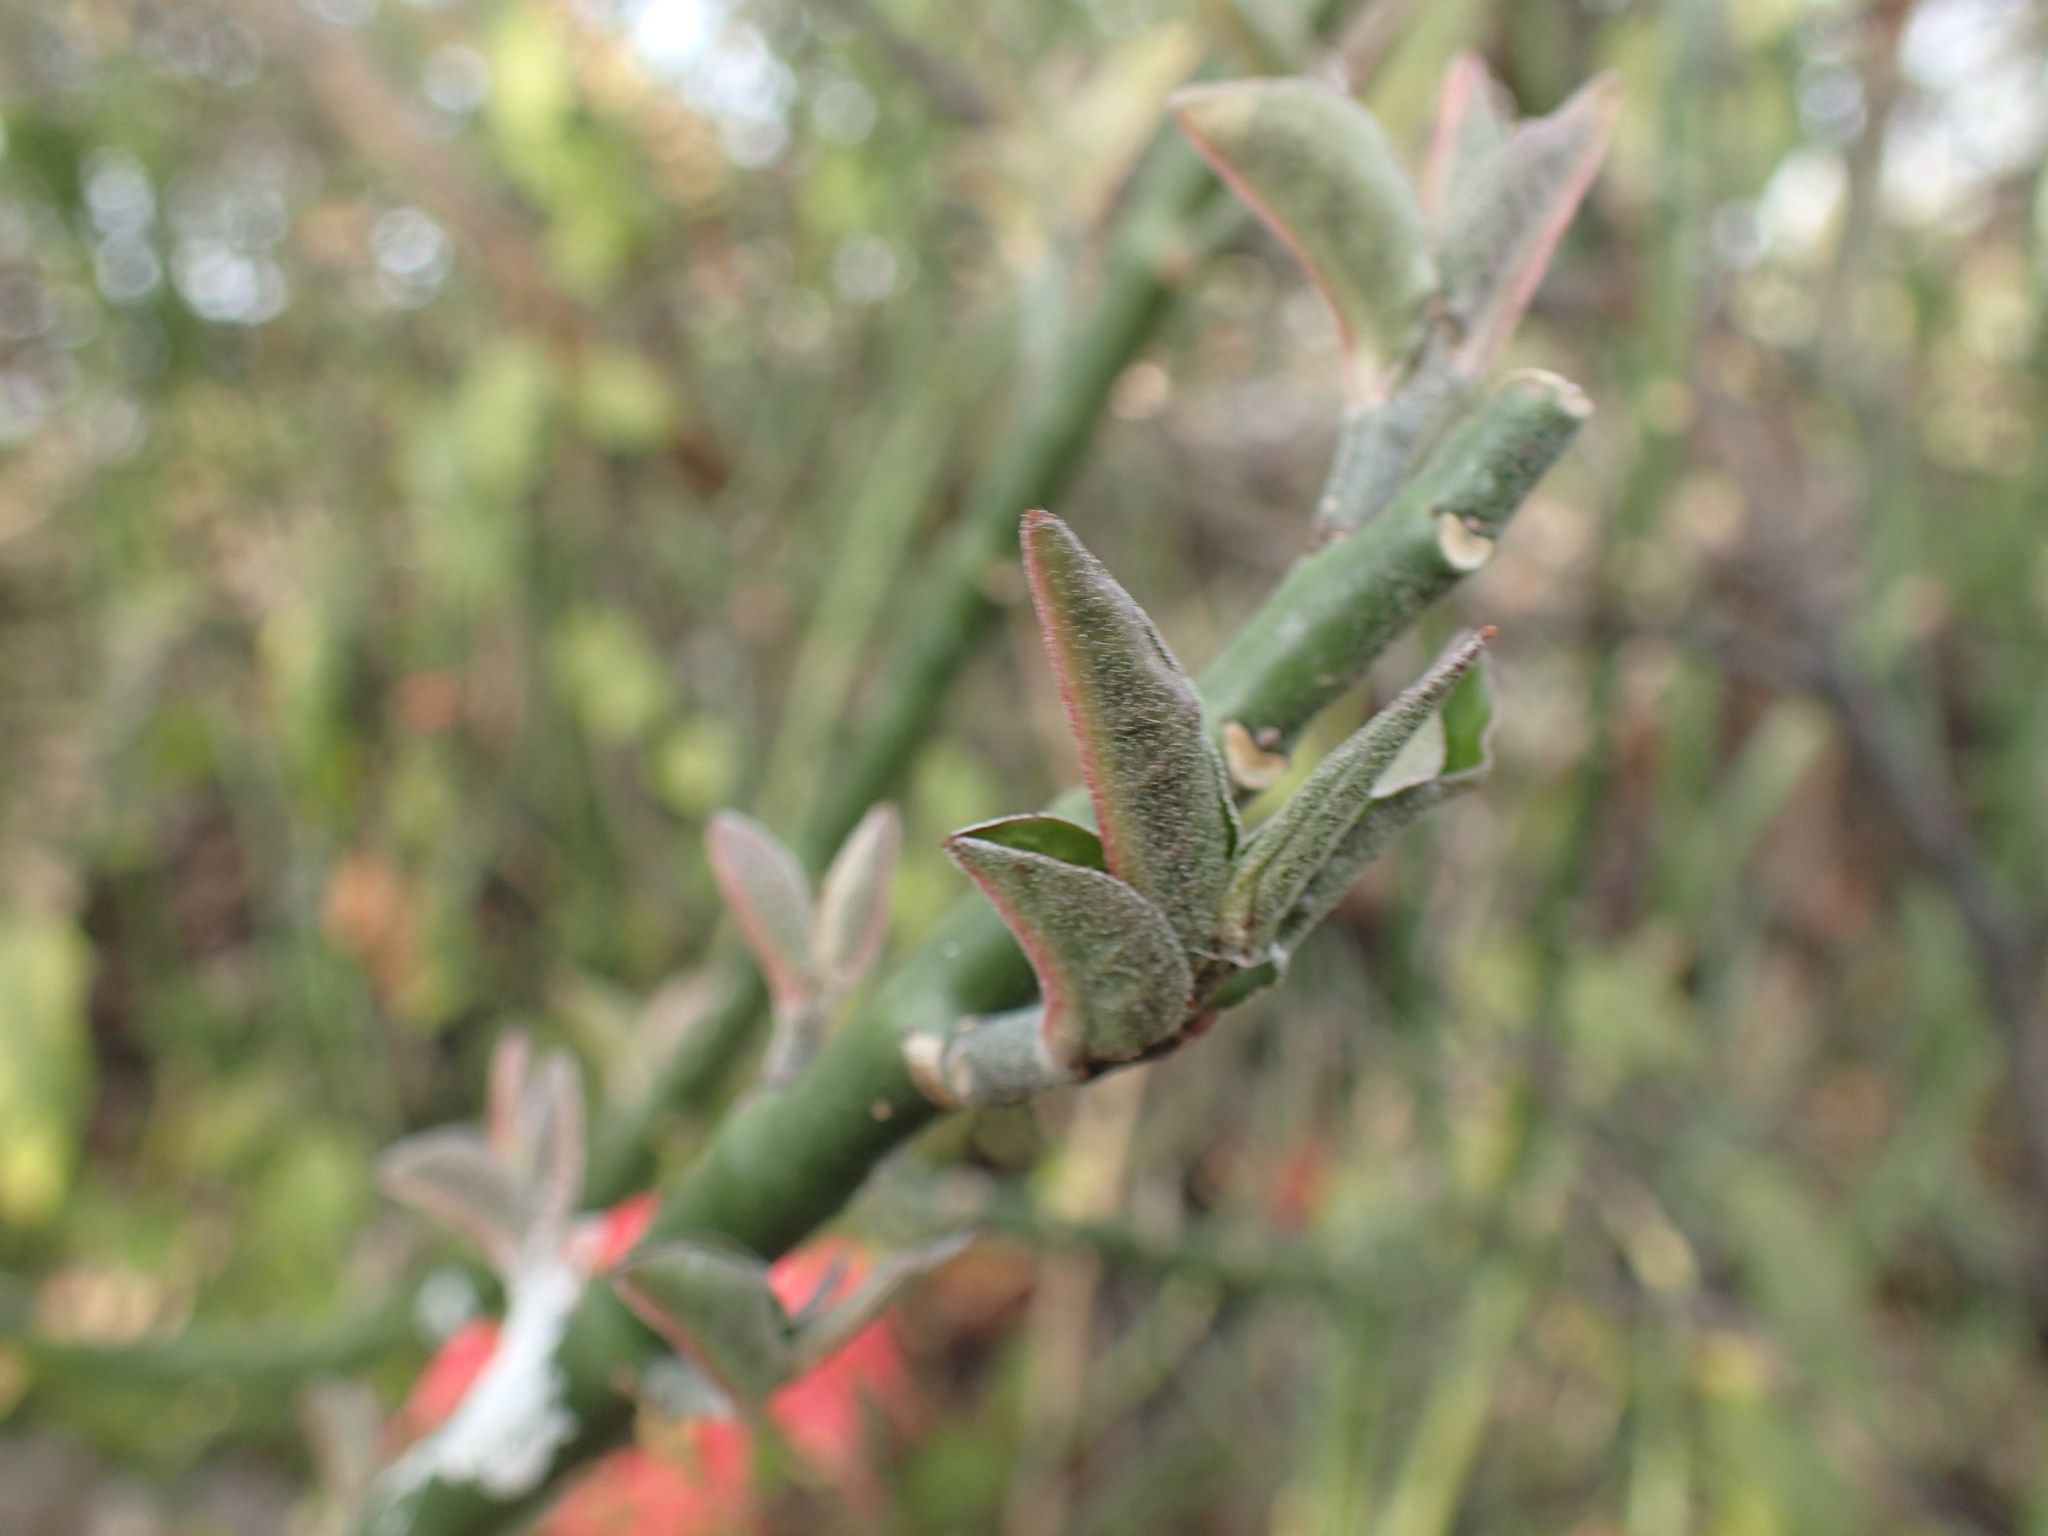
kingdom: Plantae
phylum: Tracheophyta
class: Magnoliopsida
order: Malpighiales
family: Euphorbiaceae
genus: Euphorbia
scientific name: Euphorbia tithymaloides
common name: Slipperplant
